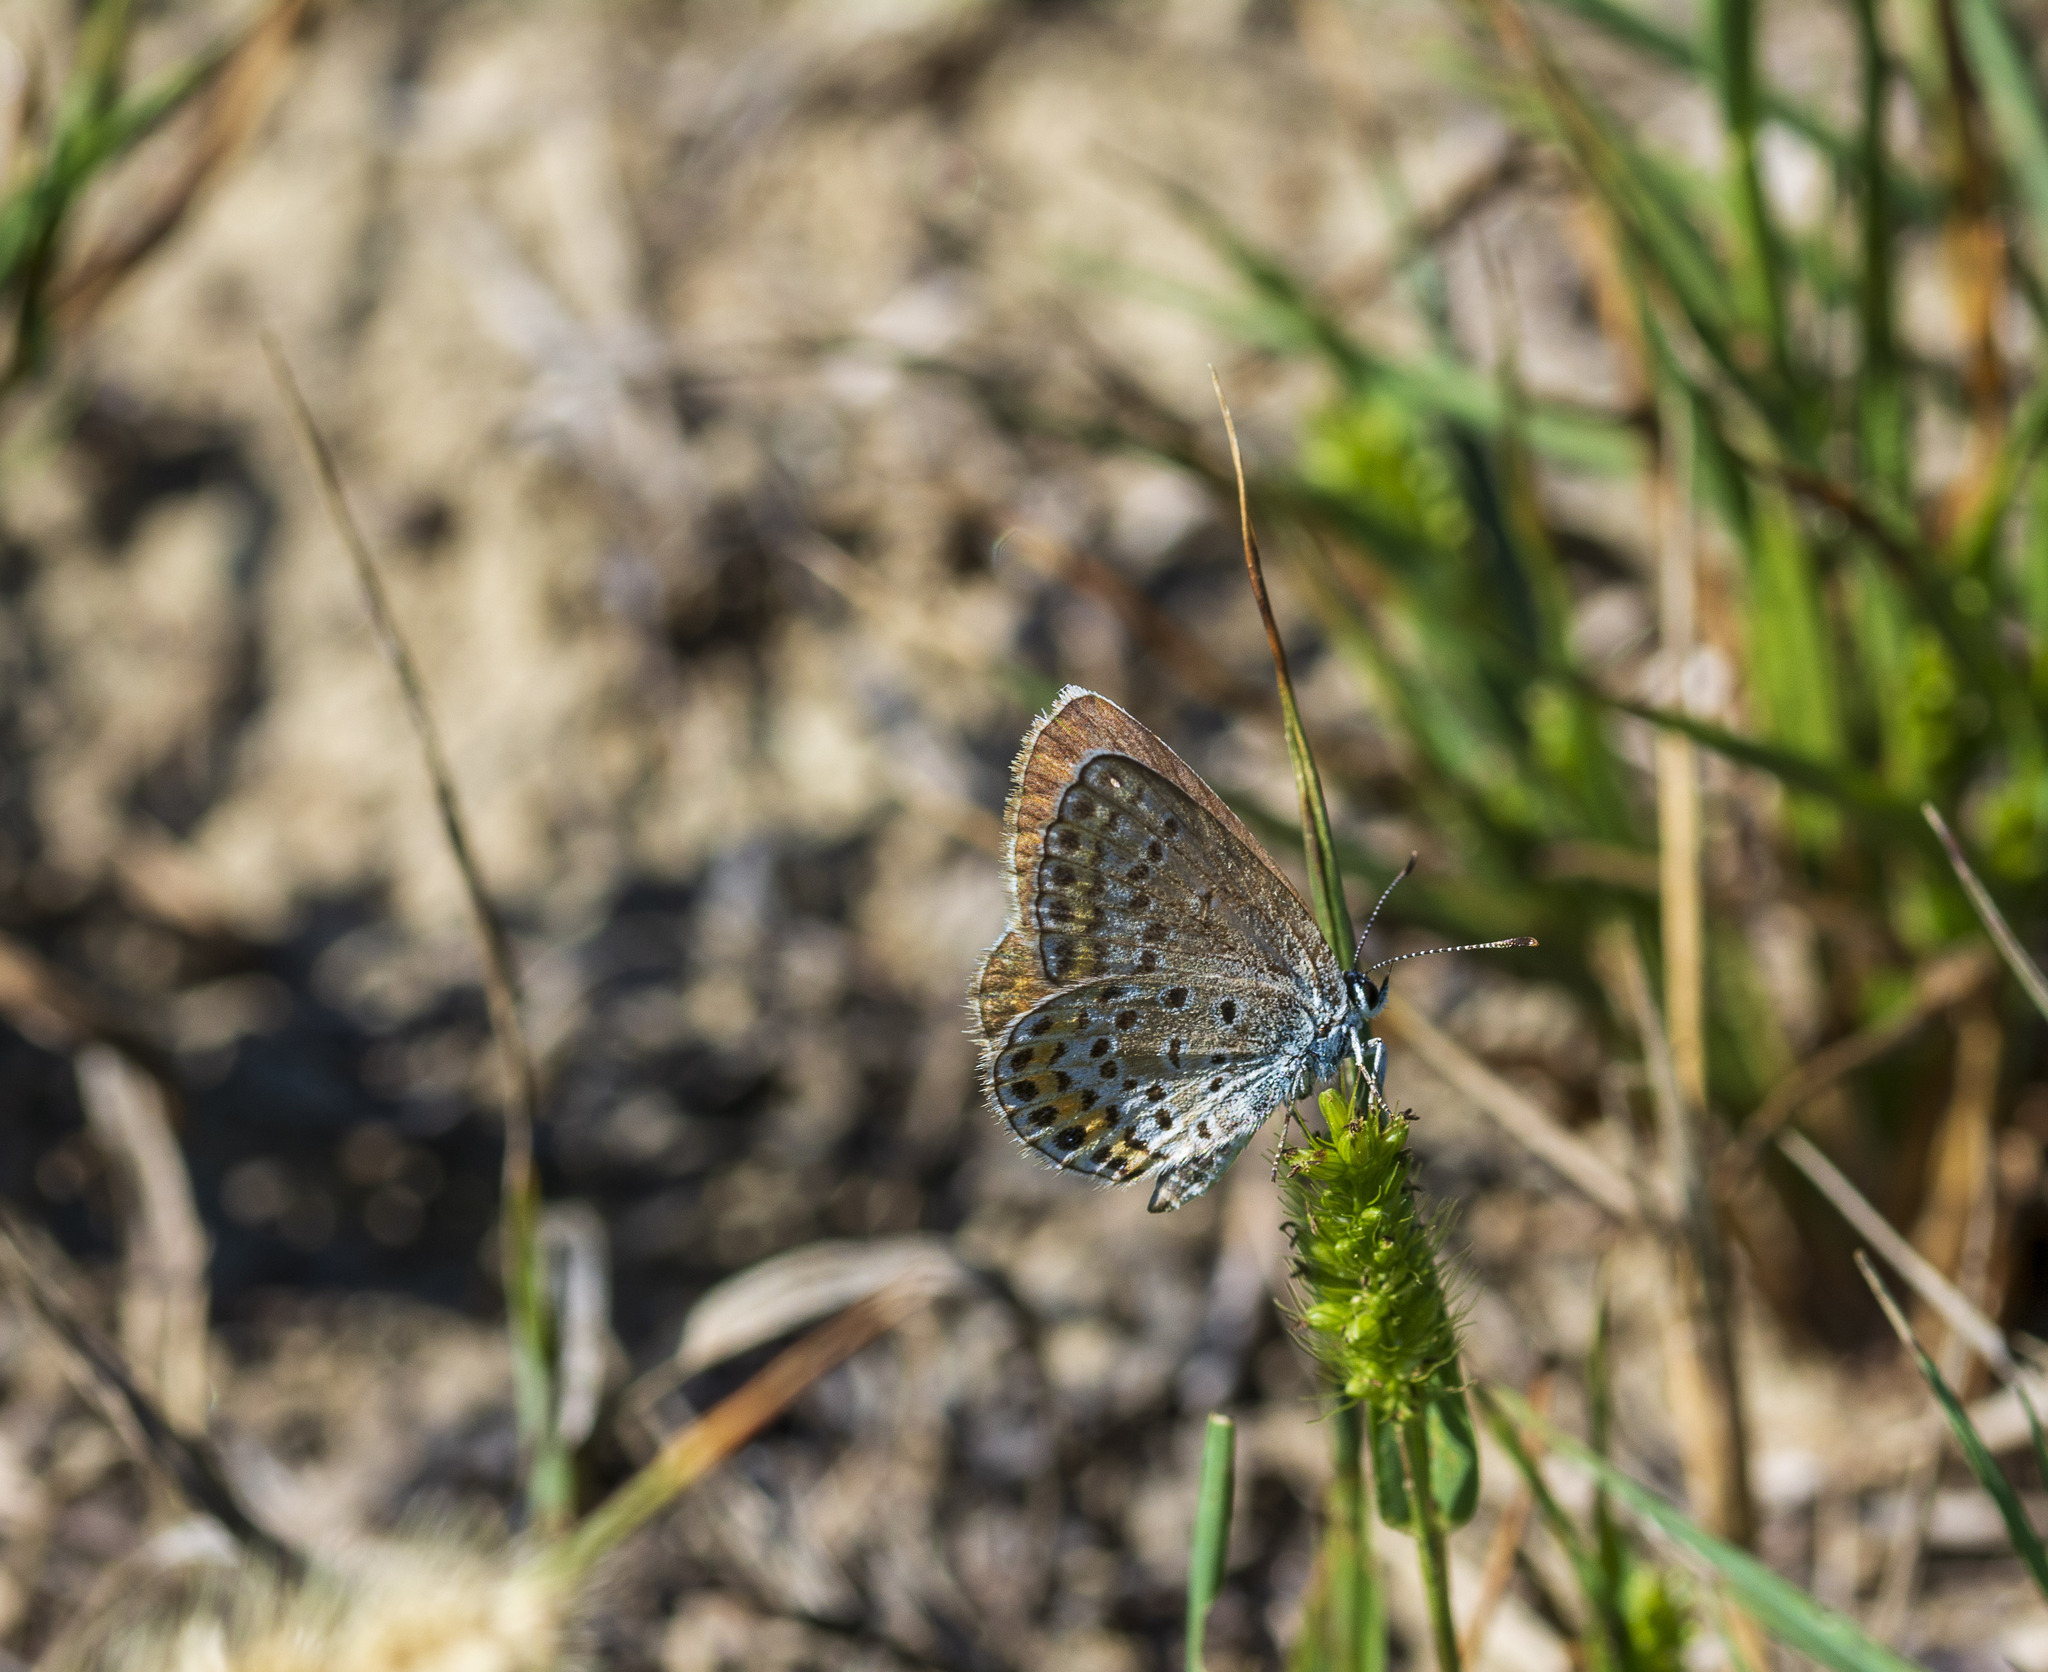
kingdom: Animalia
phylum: Arthropoda
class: Insecta
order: Lepidoptera
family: Lycaenidae
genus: Plebejus
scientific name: Plebejus argus
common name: Silver-studded blue
